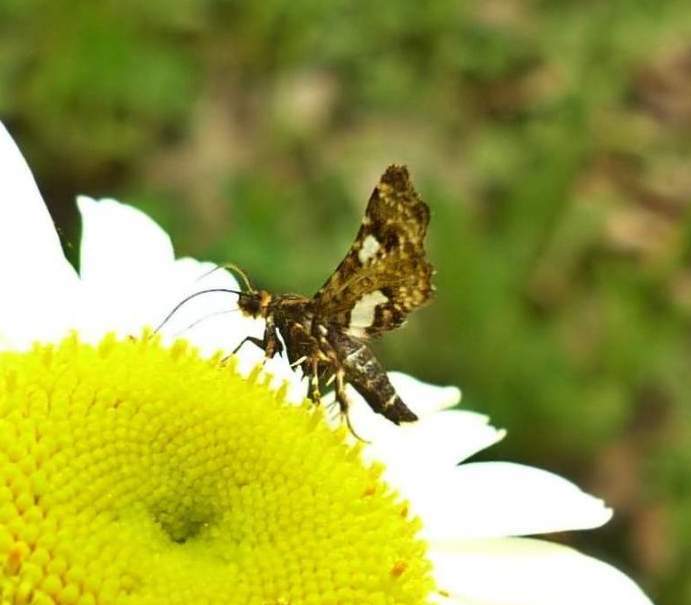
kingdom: Animalia
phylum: Arthropoda
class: Insecta
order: Lepidoptera
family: Thyrididae
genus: Thyris
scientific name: Thyris maculata
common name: Spotted thyris moth
